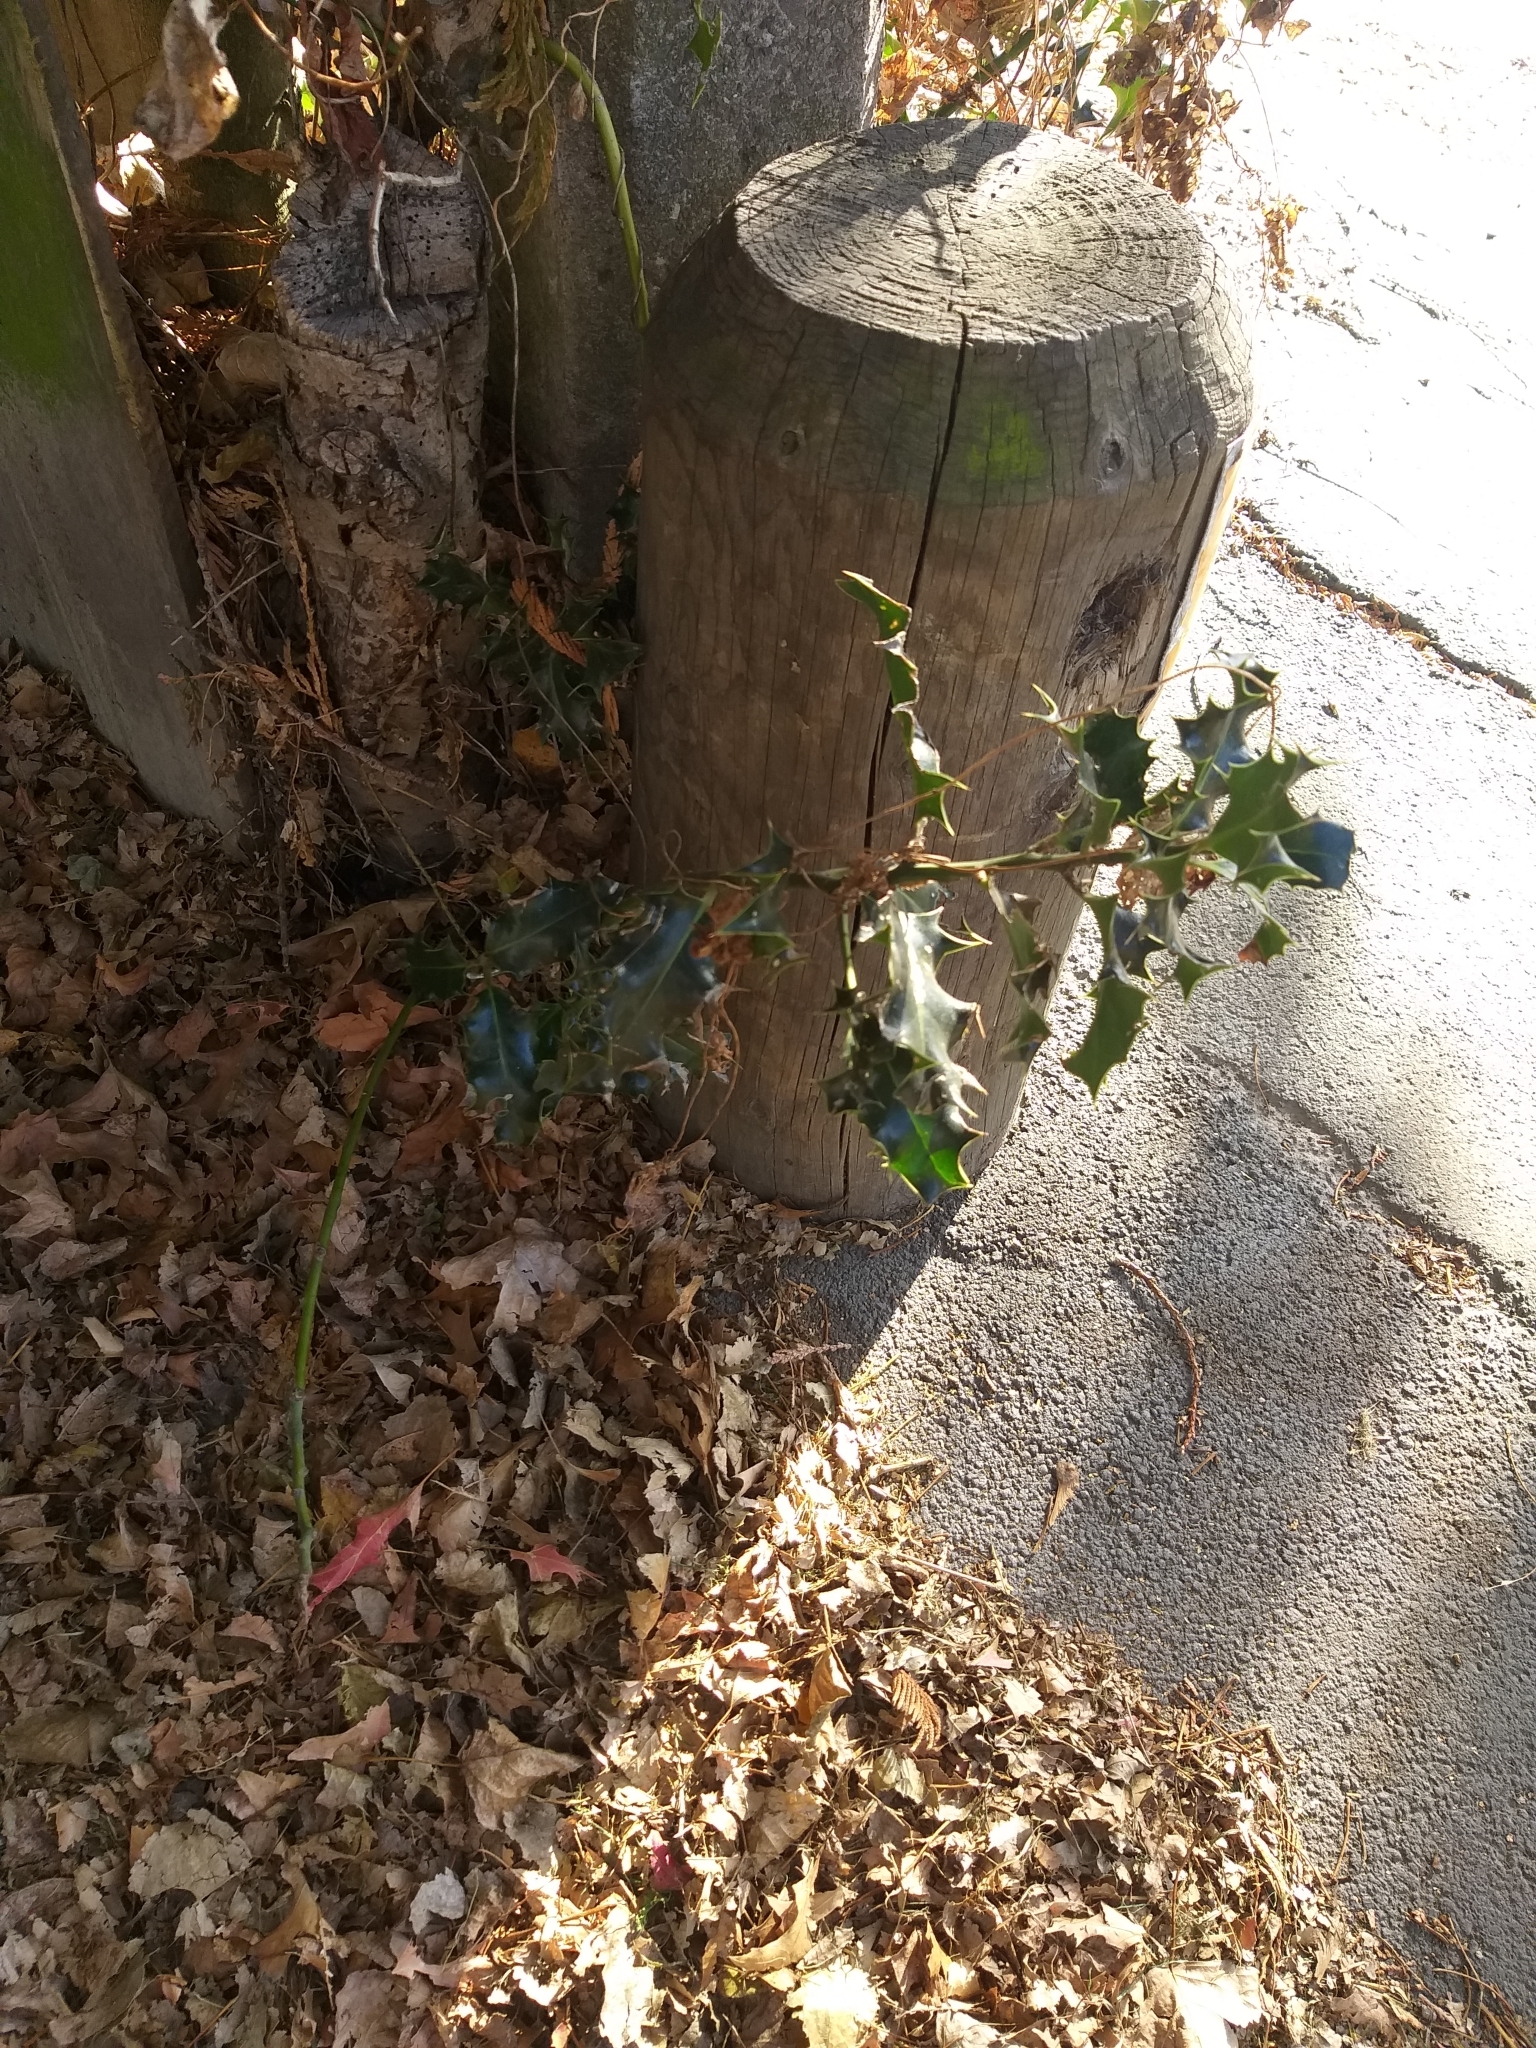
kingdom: Plantae
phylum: Tracheophyta
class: Magnoliopsida
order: Aquifoliales
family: Aquifoliaceae
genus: Ilex
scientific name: Ilex aquifolium
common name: English holly
